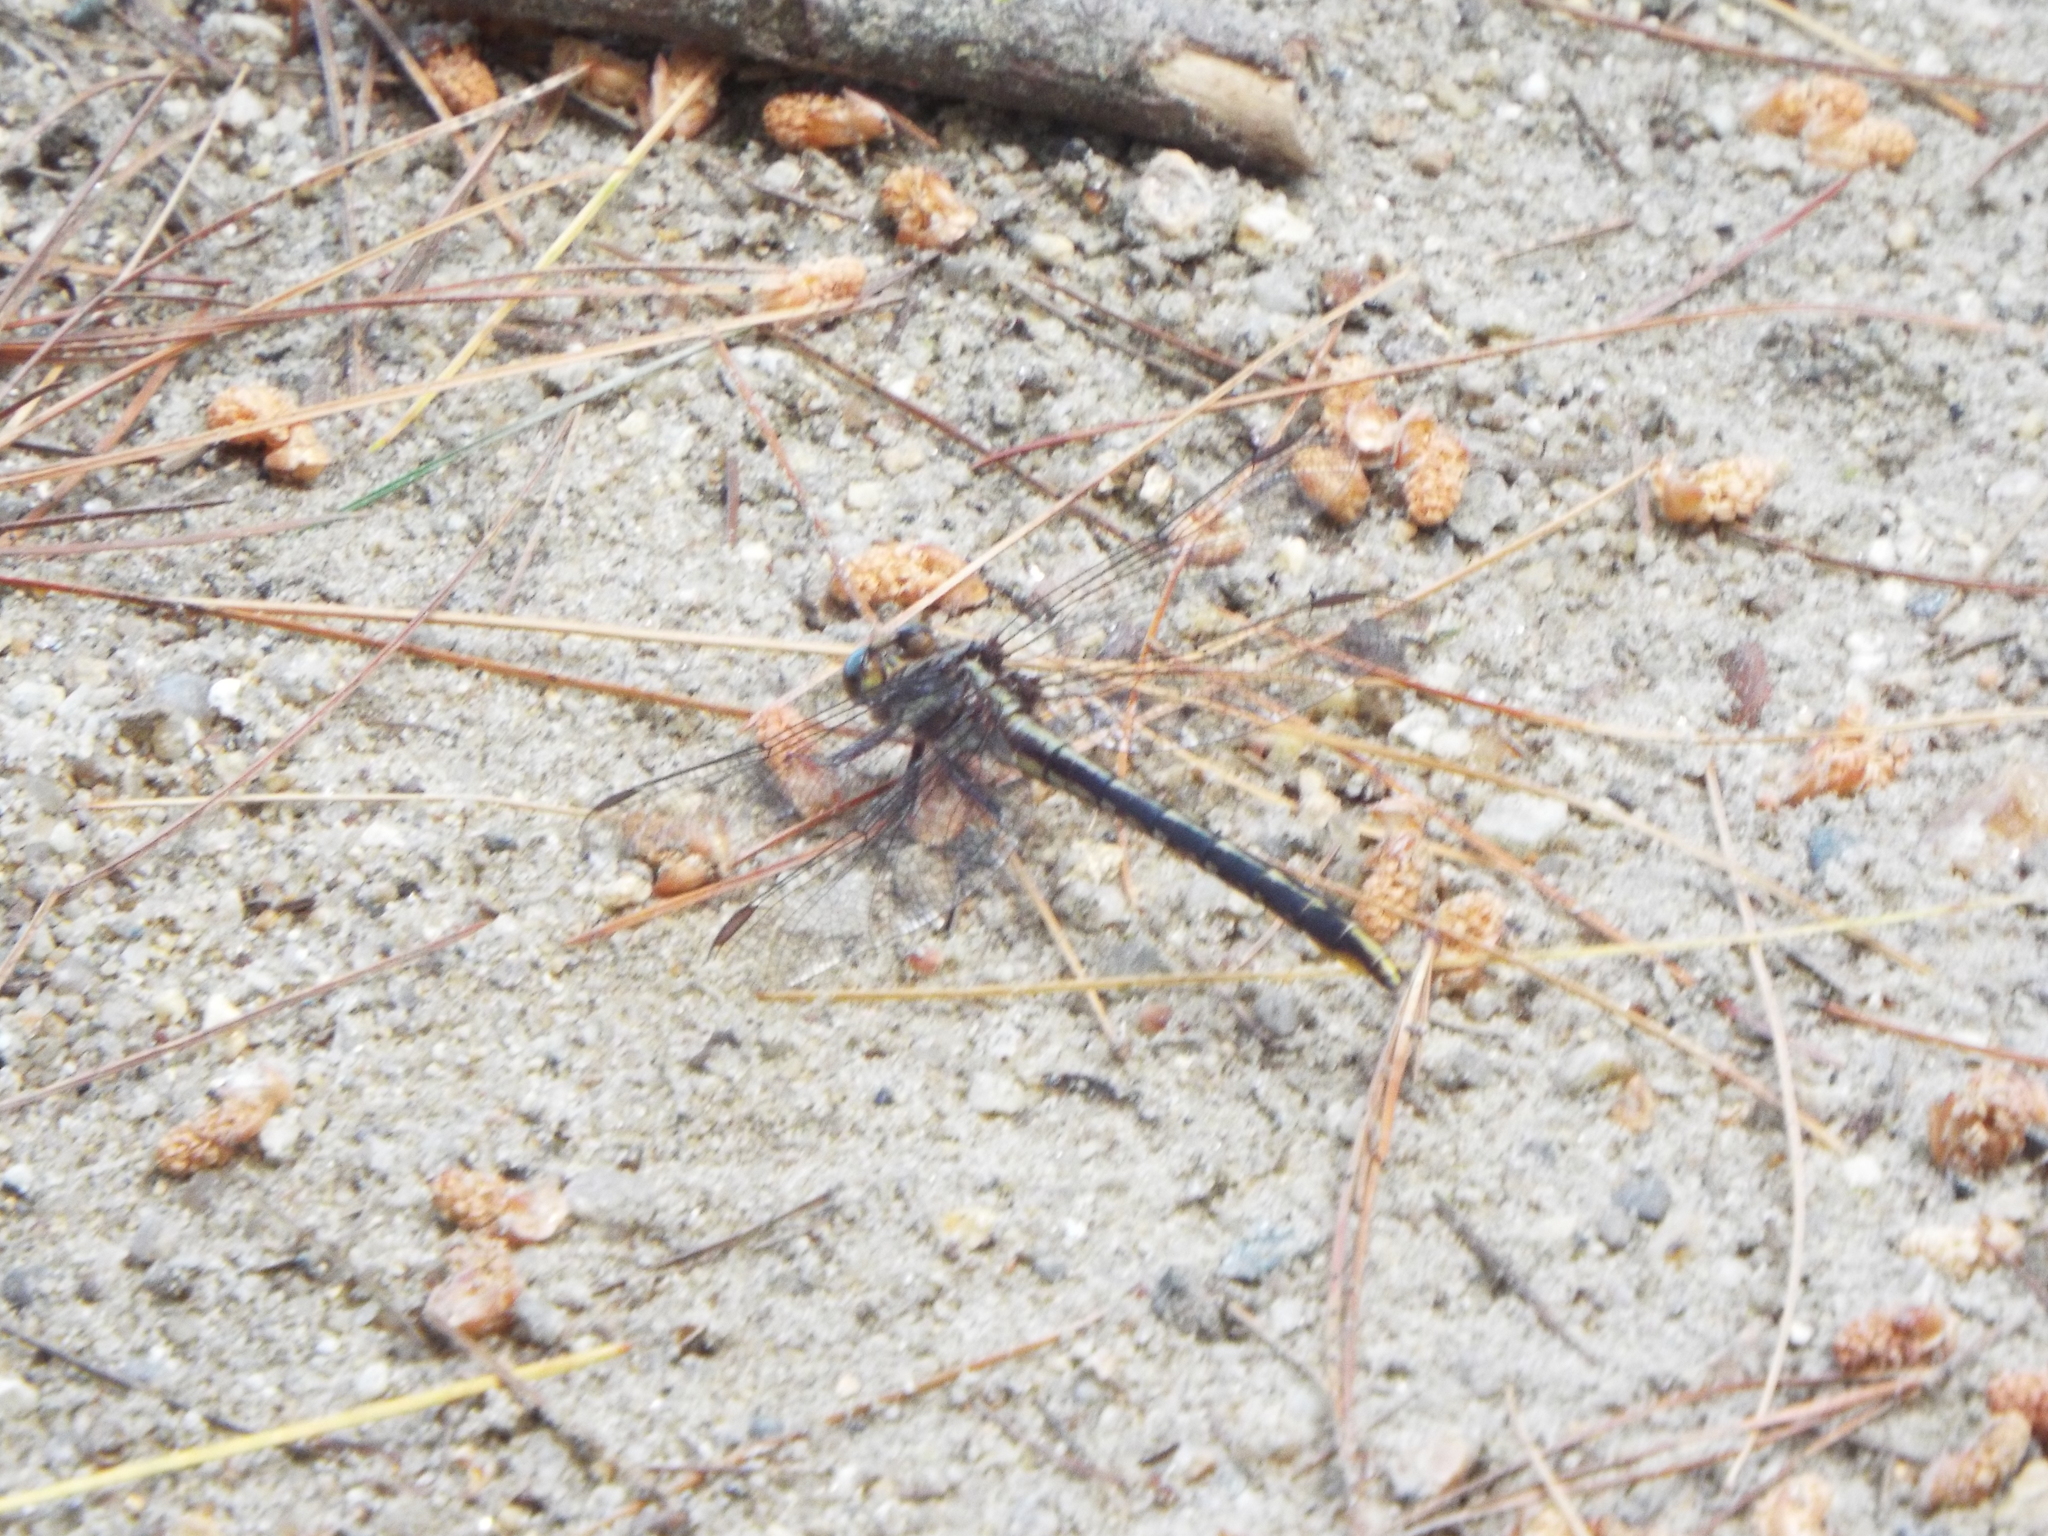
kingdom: Animalia
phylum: Arthropoda
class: Insecta
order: Odonata
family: Gomphidae
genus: Phanogomphus
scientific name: Phanogomphus exilis
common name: Lancet clubtail
